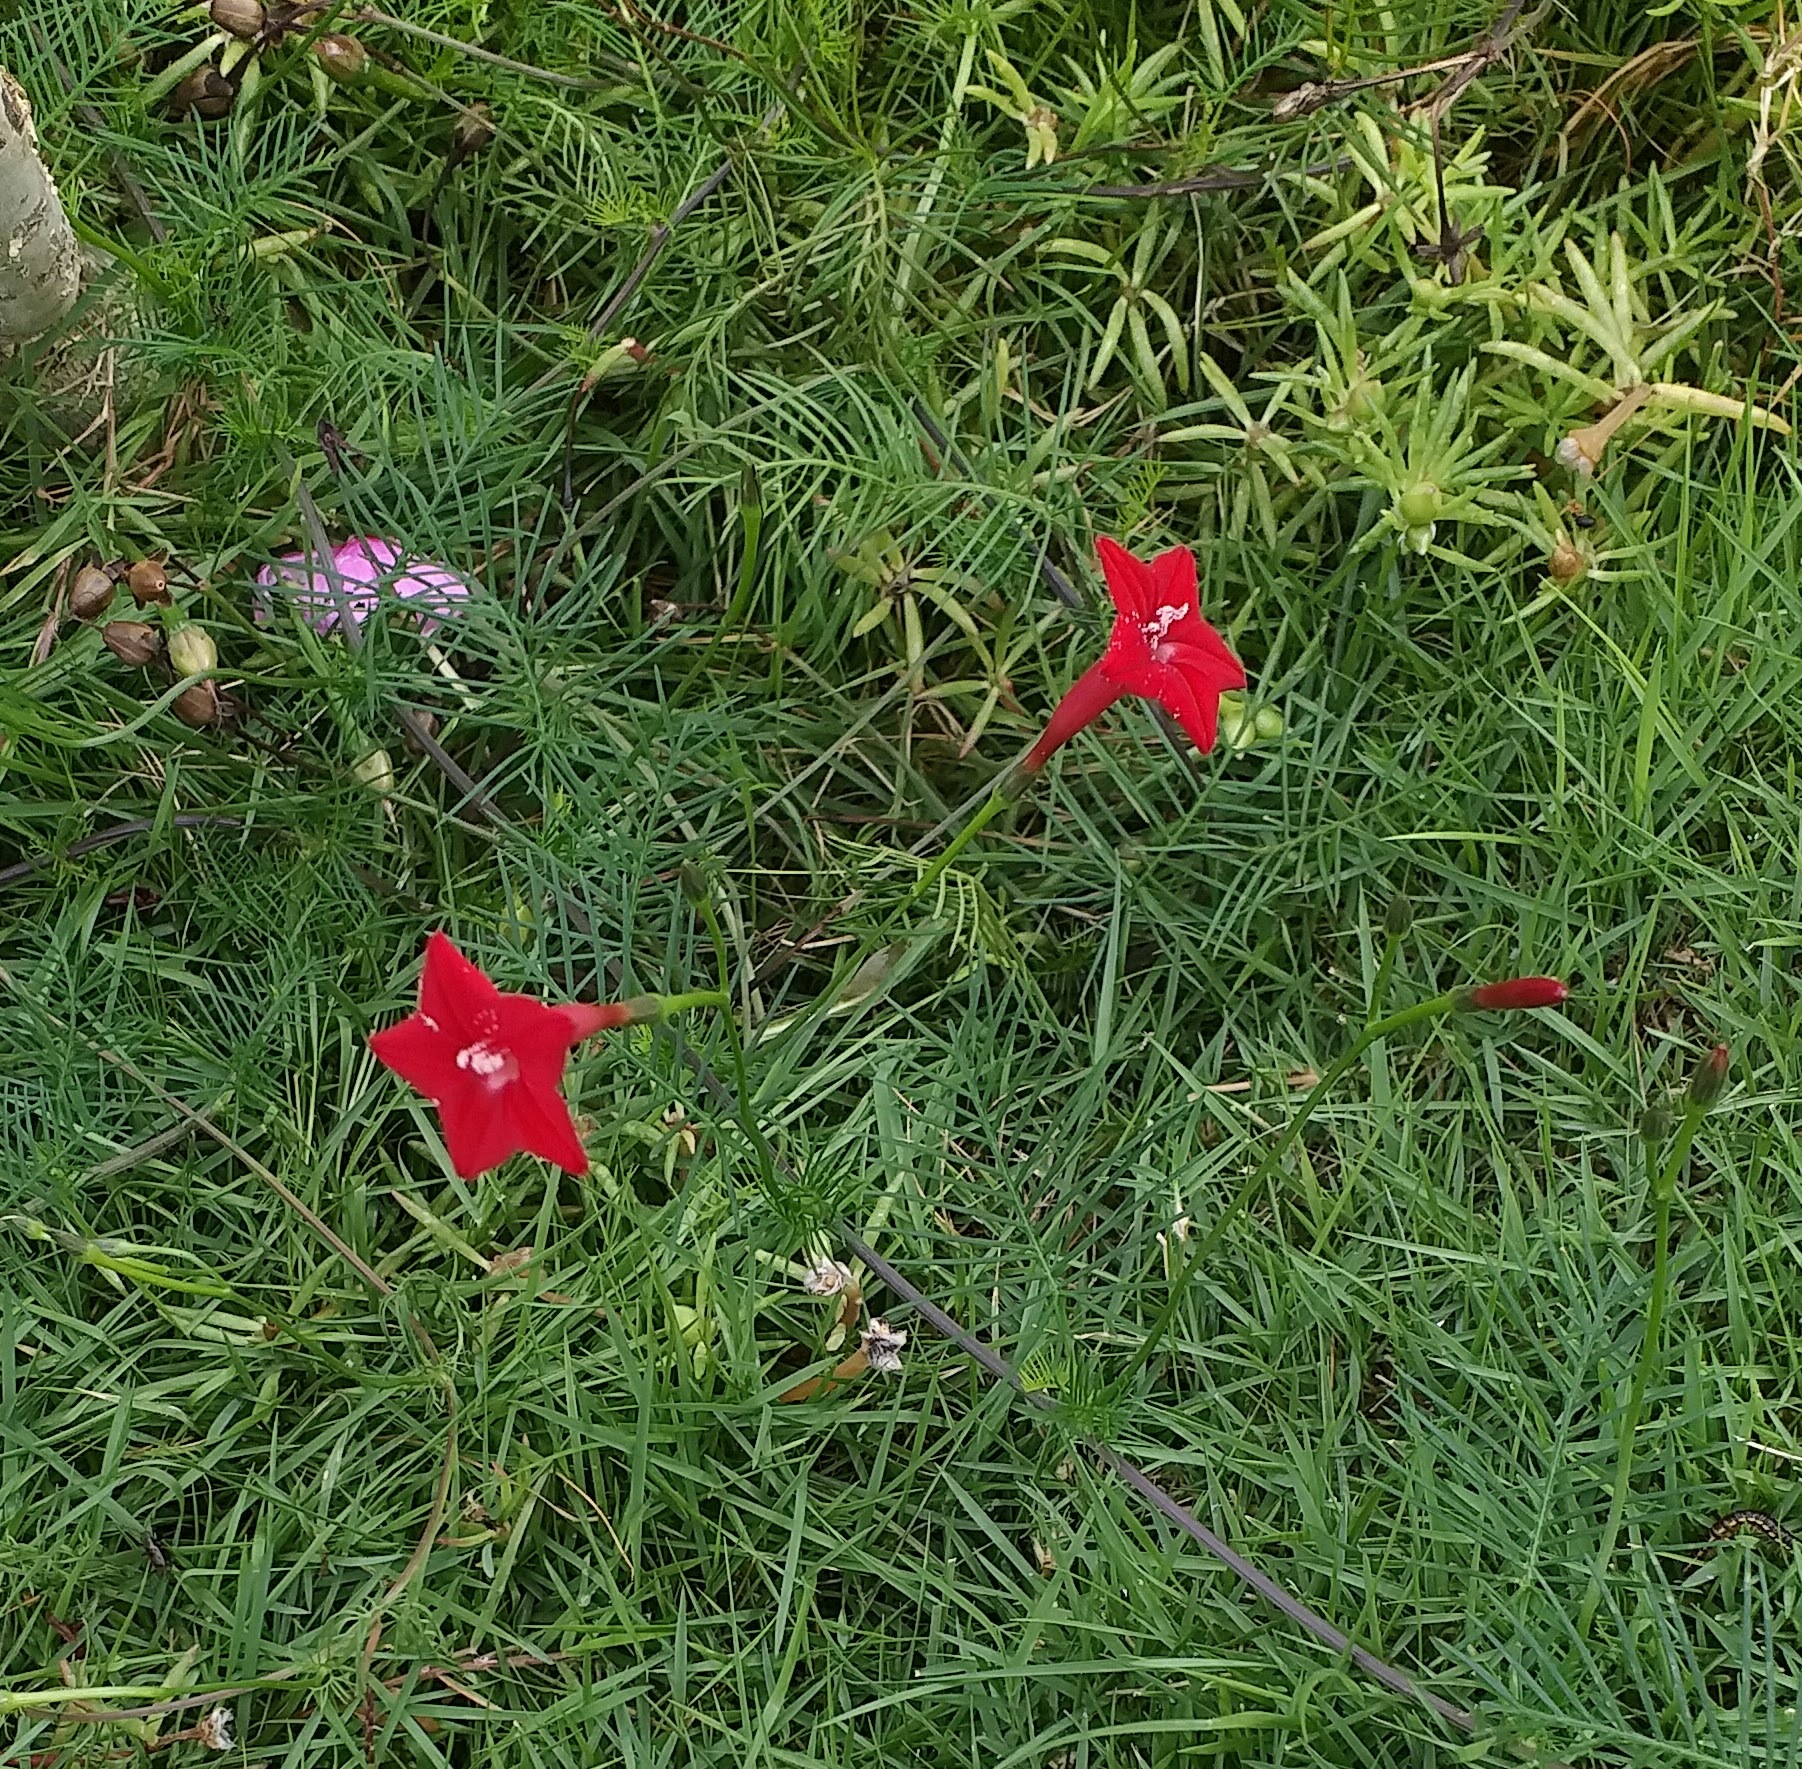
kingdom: Plantae
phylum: Tracheophyta
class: Magnoliopsida
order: Solanales
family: Convolvulaceae
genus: Ipomoea
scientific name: Ipomoea quamoclit
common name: Cypress vine
